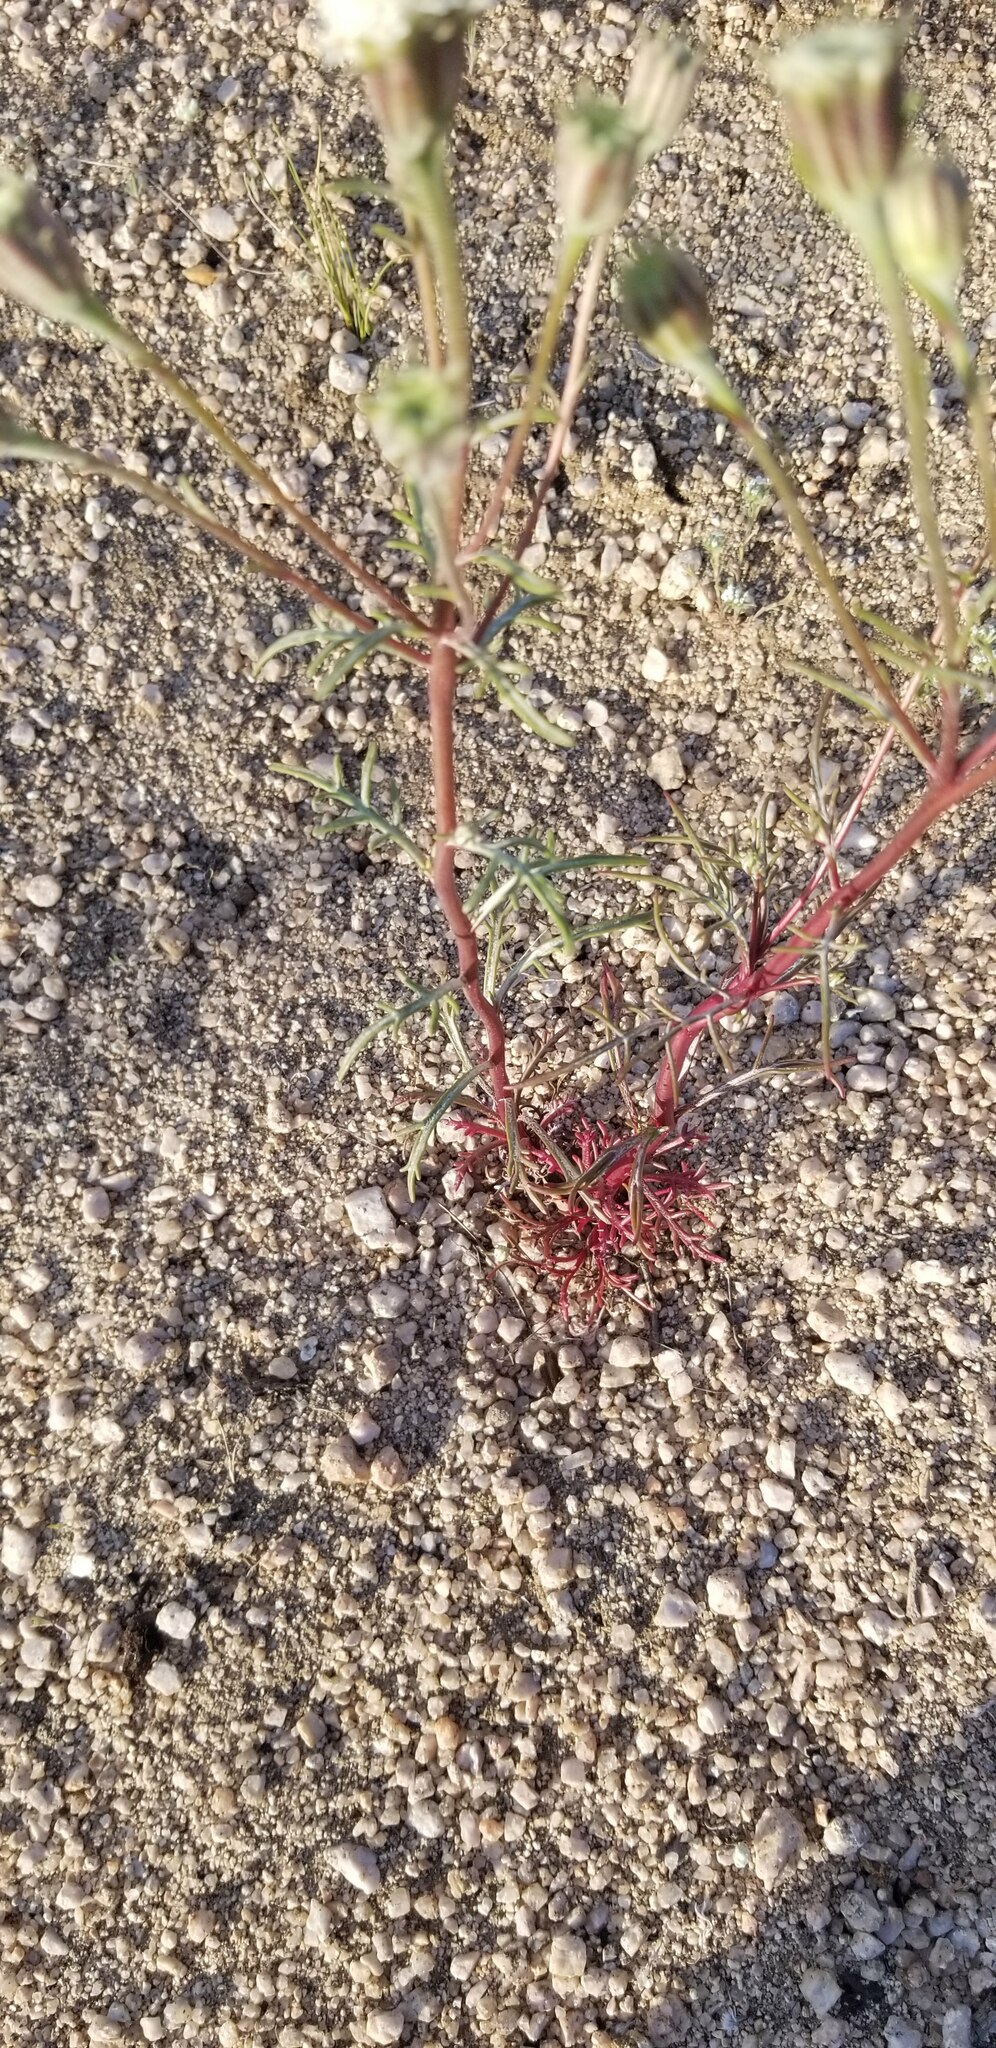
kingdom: Plantae
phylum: Tracheophyta
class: Magnoliopsida
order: Asterales
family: Asteraceae
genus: Chaenactis
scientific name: Chaenactis xantiana
